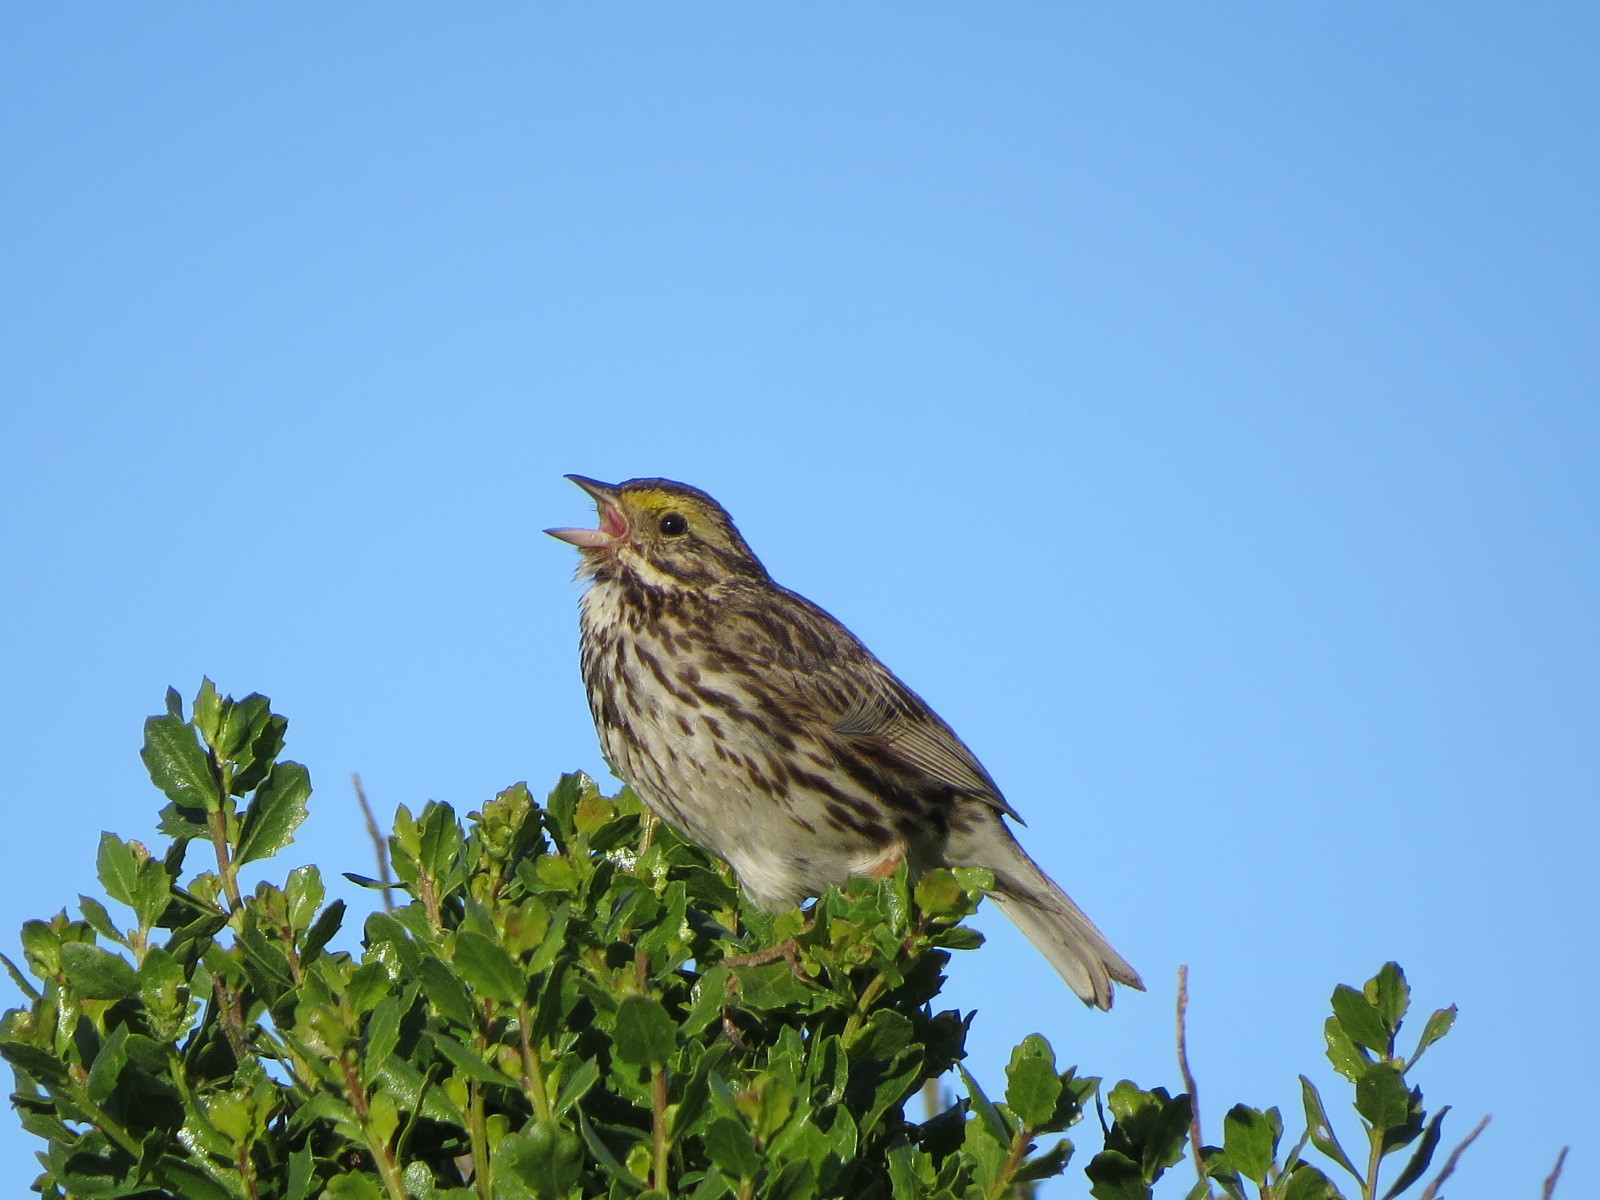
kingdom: Animalia
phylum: Chordata
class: Aves
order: Passeriformes
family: Passerellidae
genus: Passerculus
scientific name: Passerculus sandwichensis
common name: Savannah sparrow
